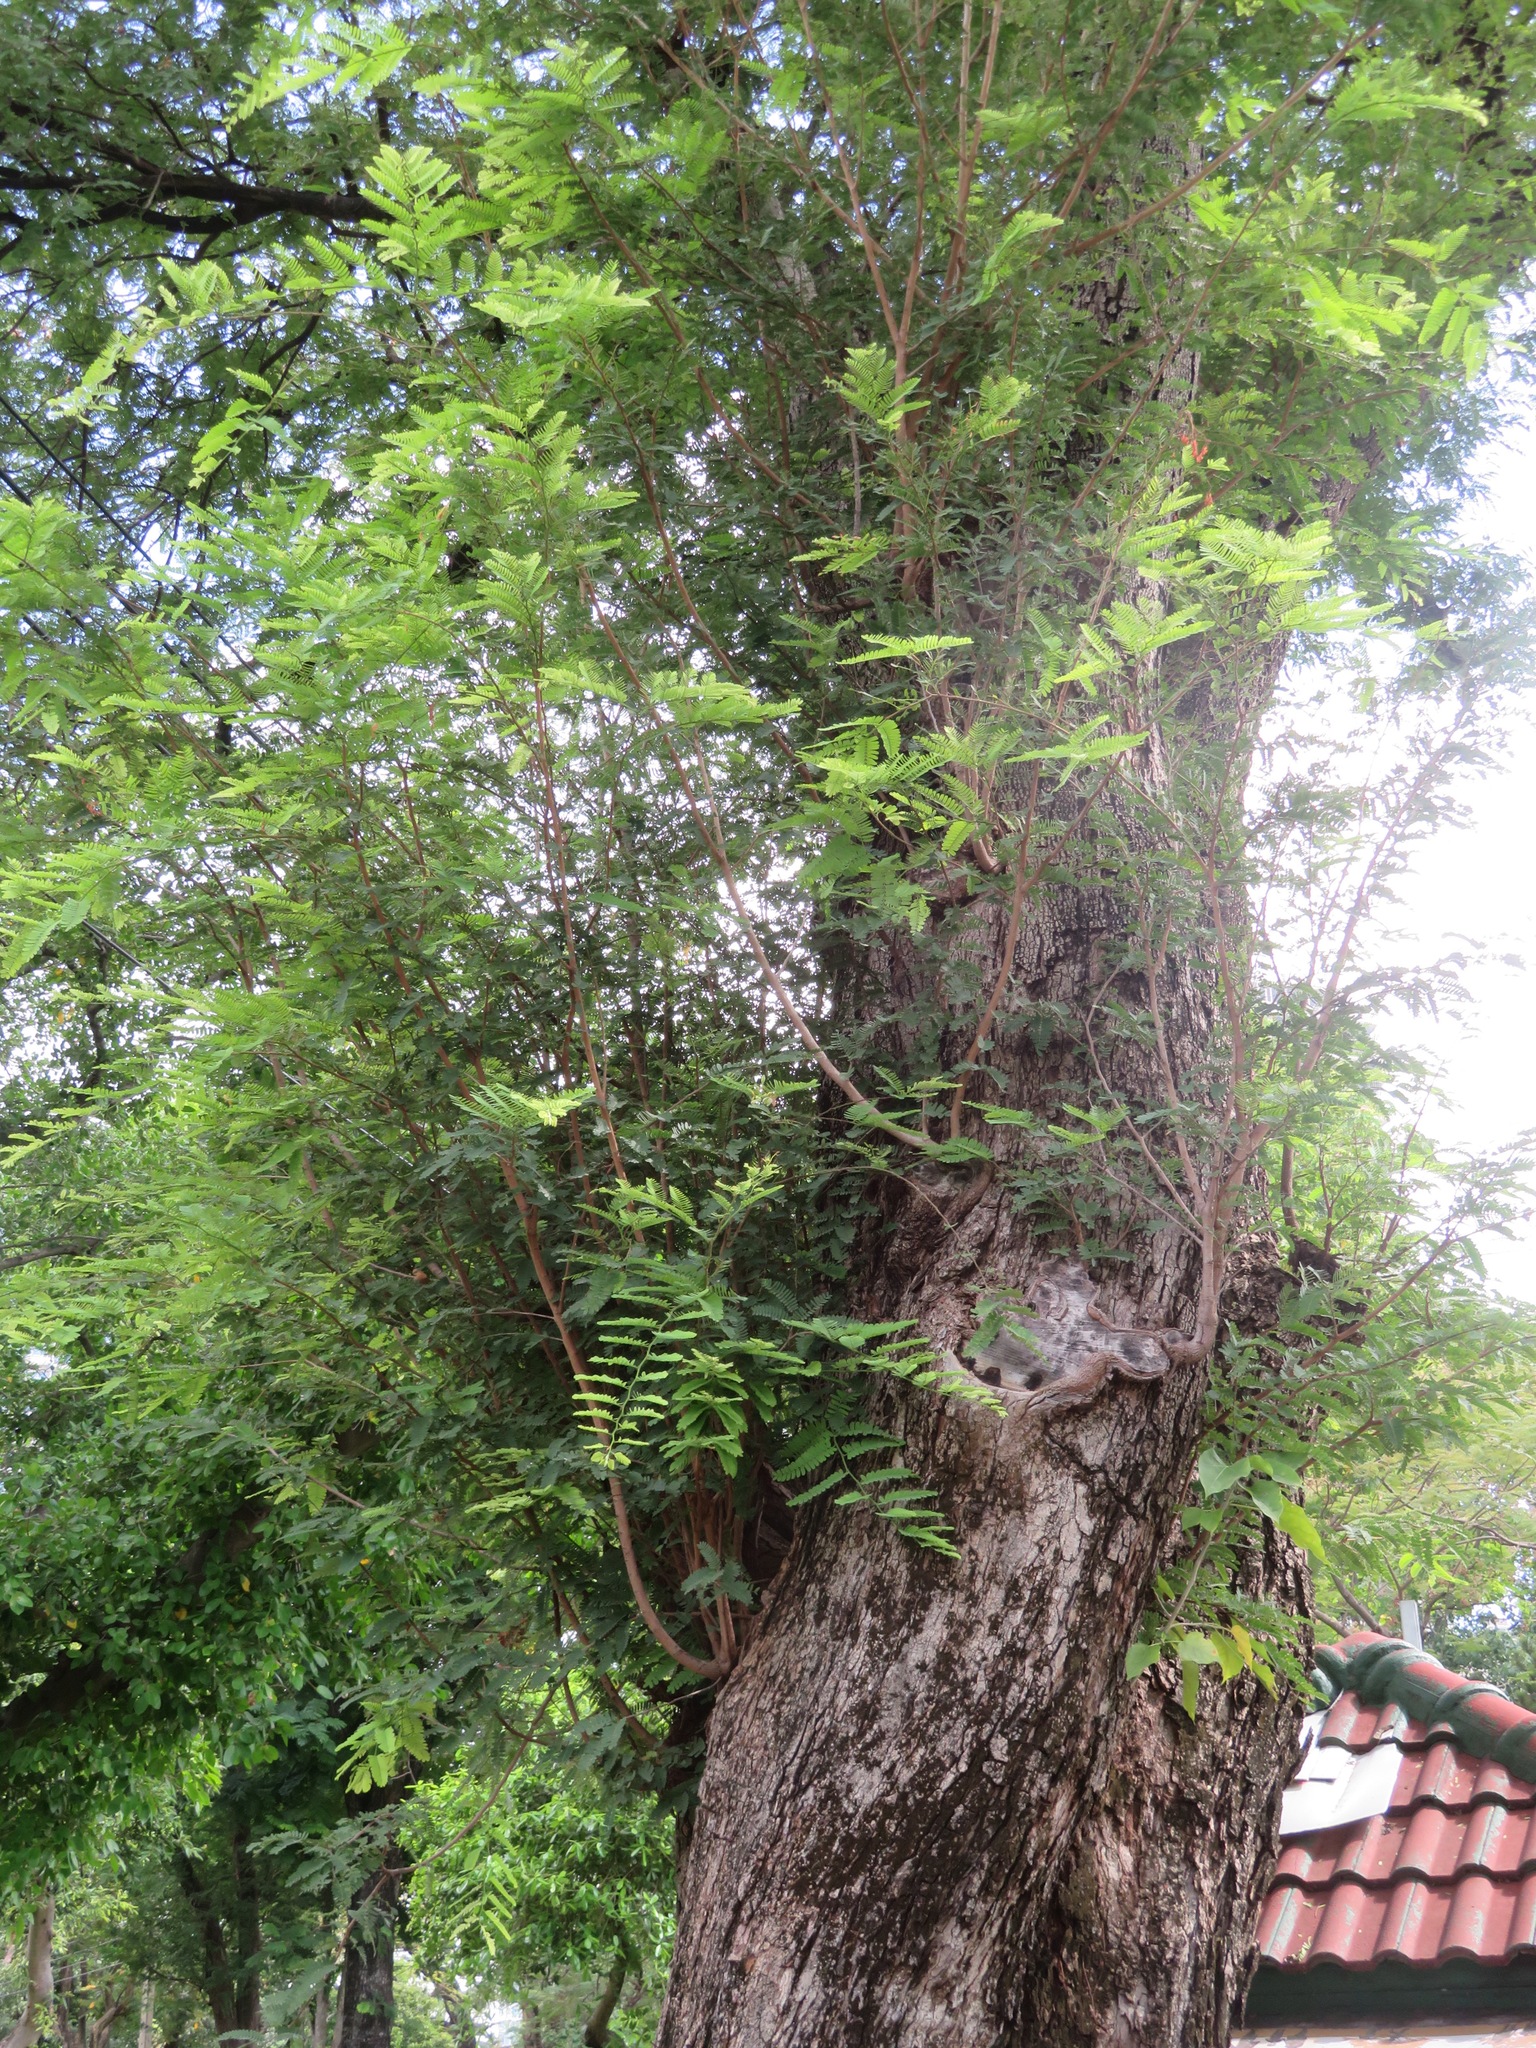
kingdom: Plantae
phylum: Tracheophyta
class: Magnoliopsida
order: Fabales
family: Fabaceae
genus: Tamarindus
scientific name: Tamarindus indica
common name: Tamarind
